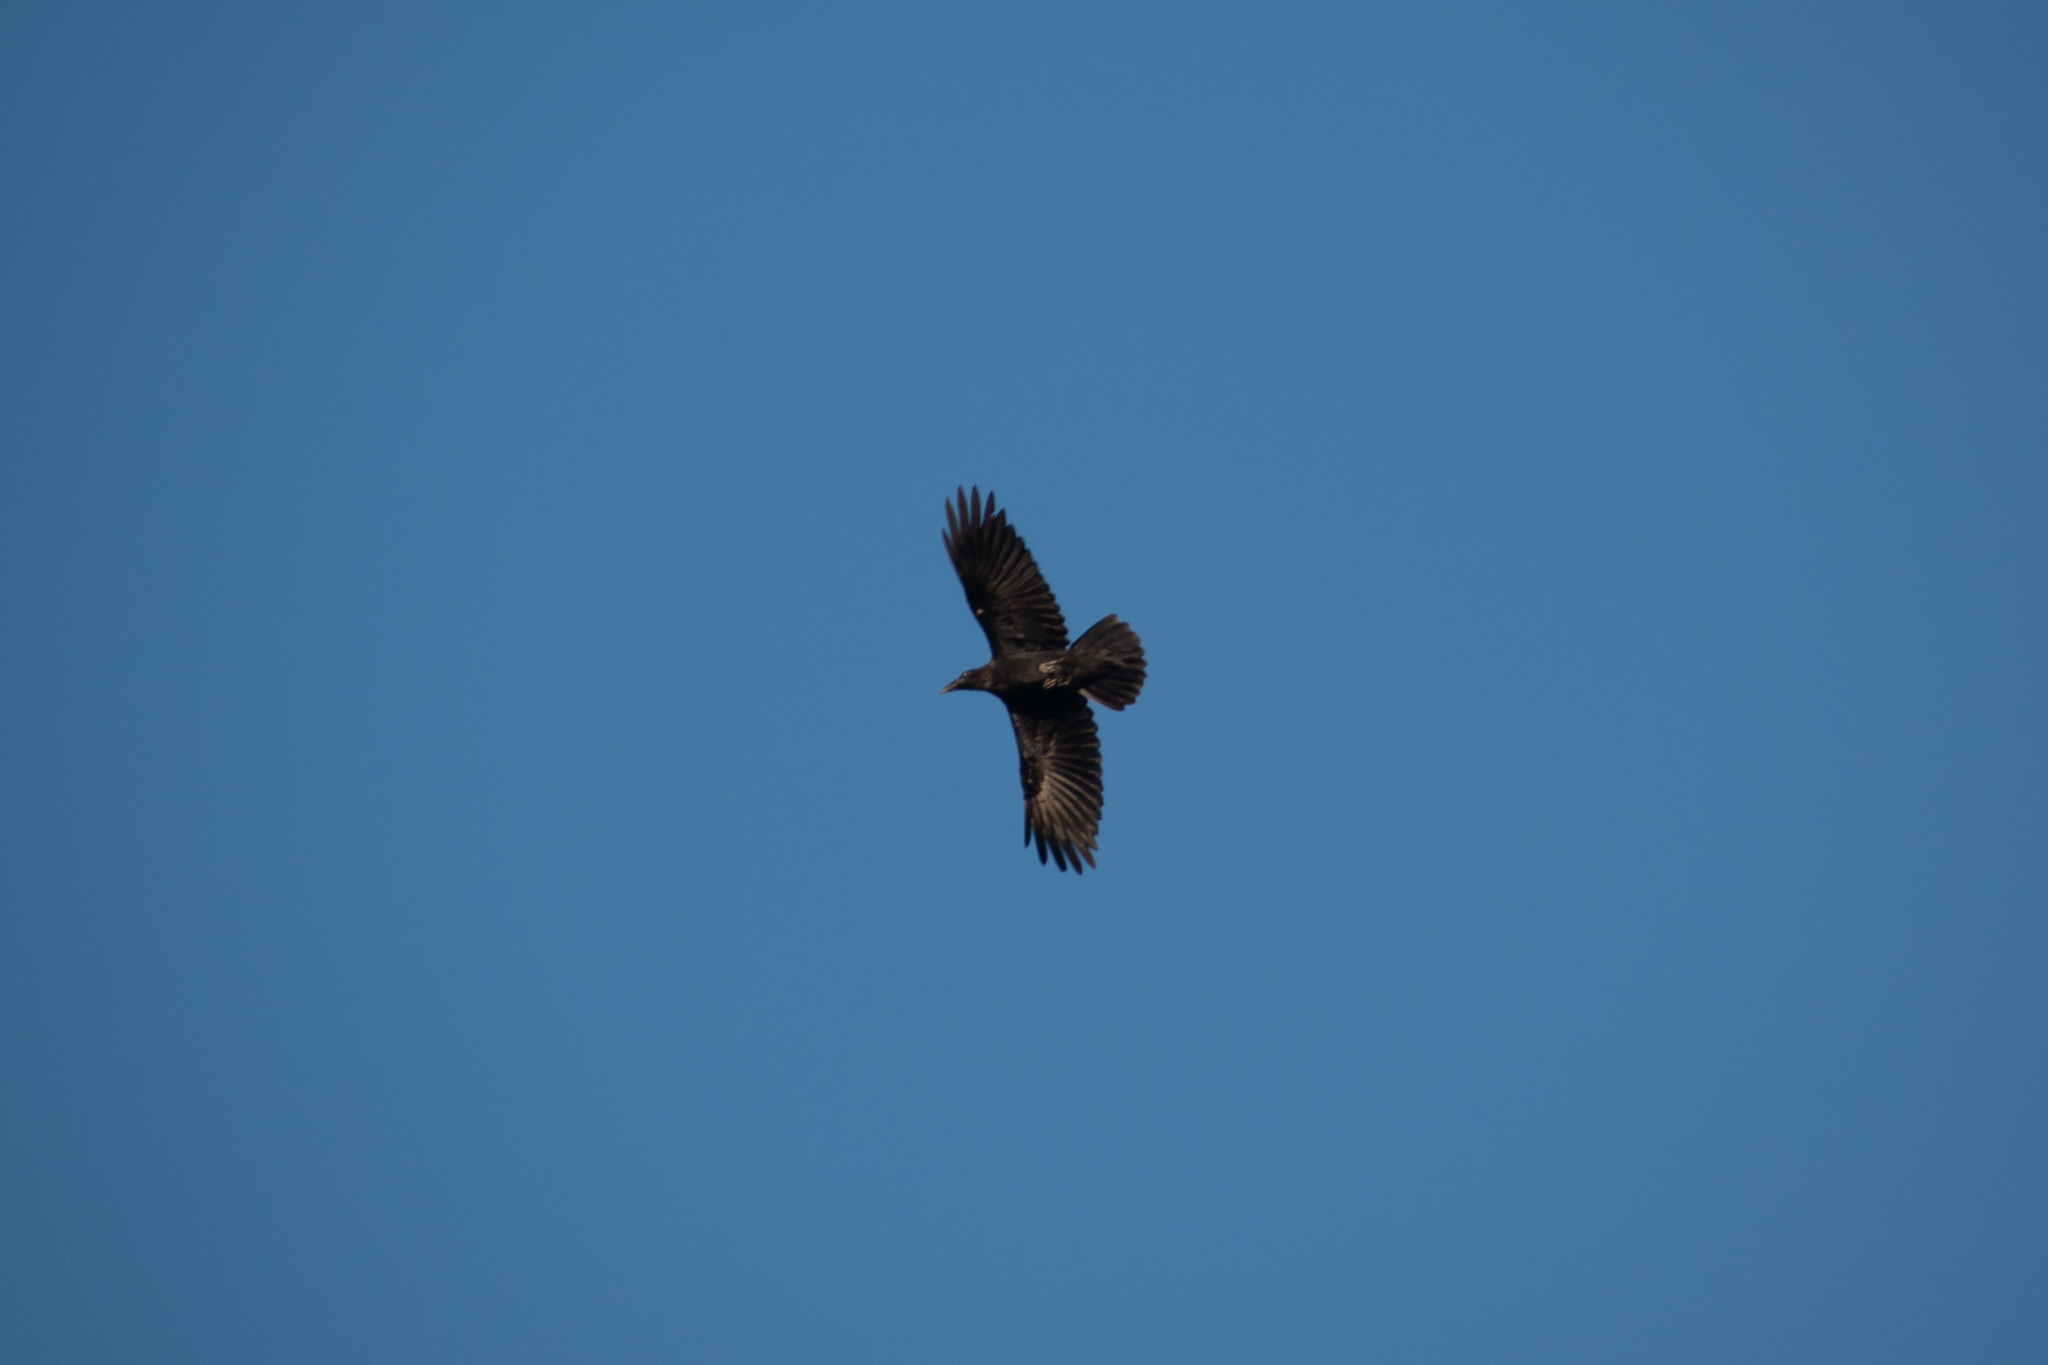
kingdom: Animalia
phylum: Chordata
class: Aves
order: Passeriformes
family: Corvidae
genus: Corvus
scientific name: Corvus corax
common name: Common raven
